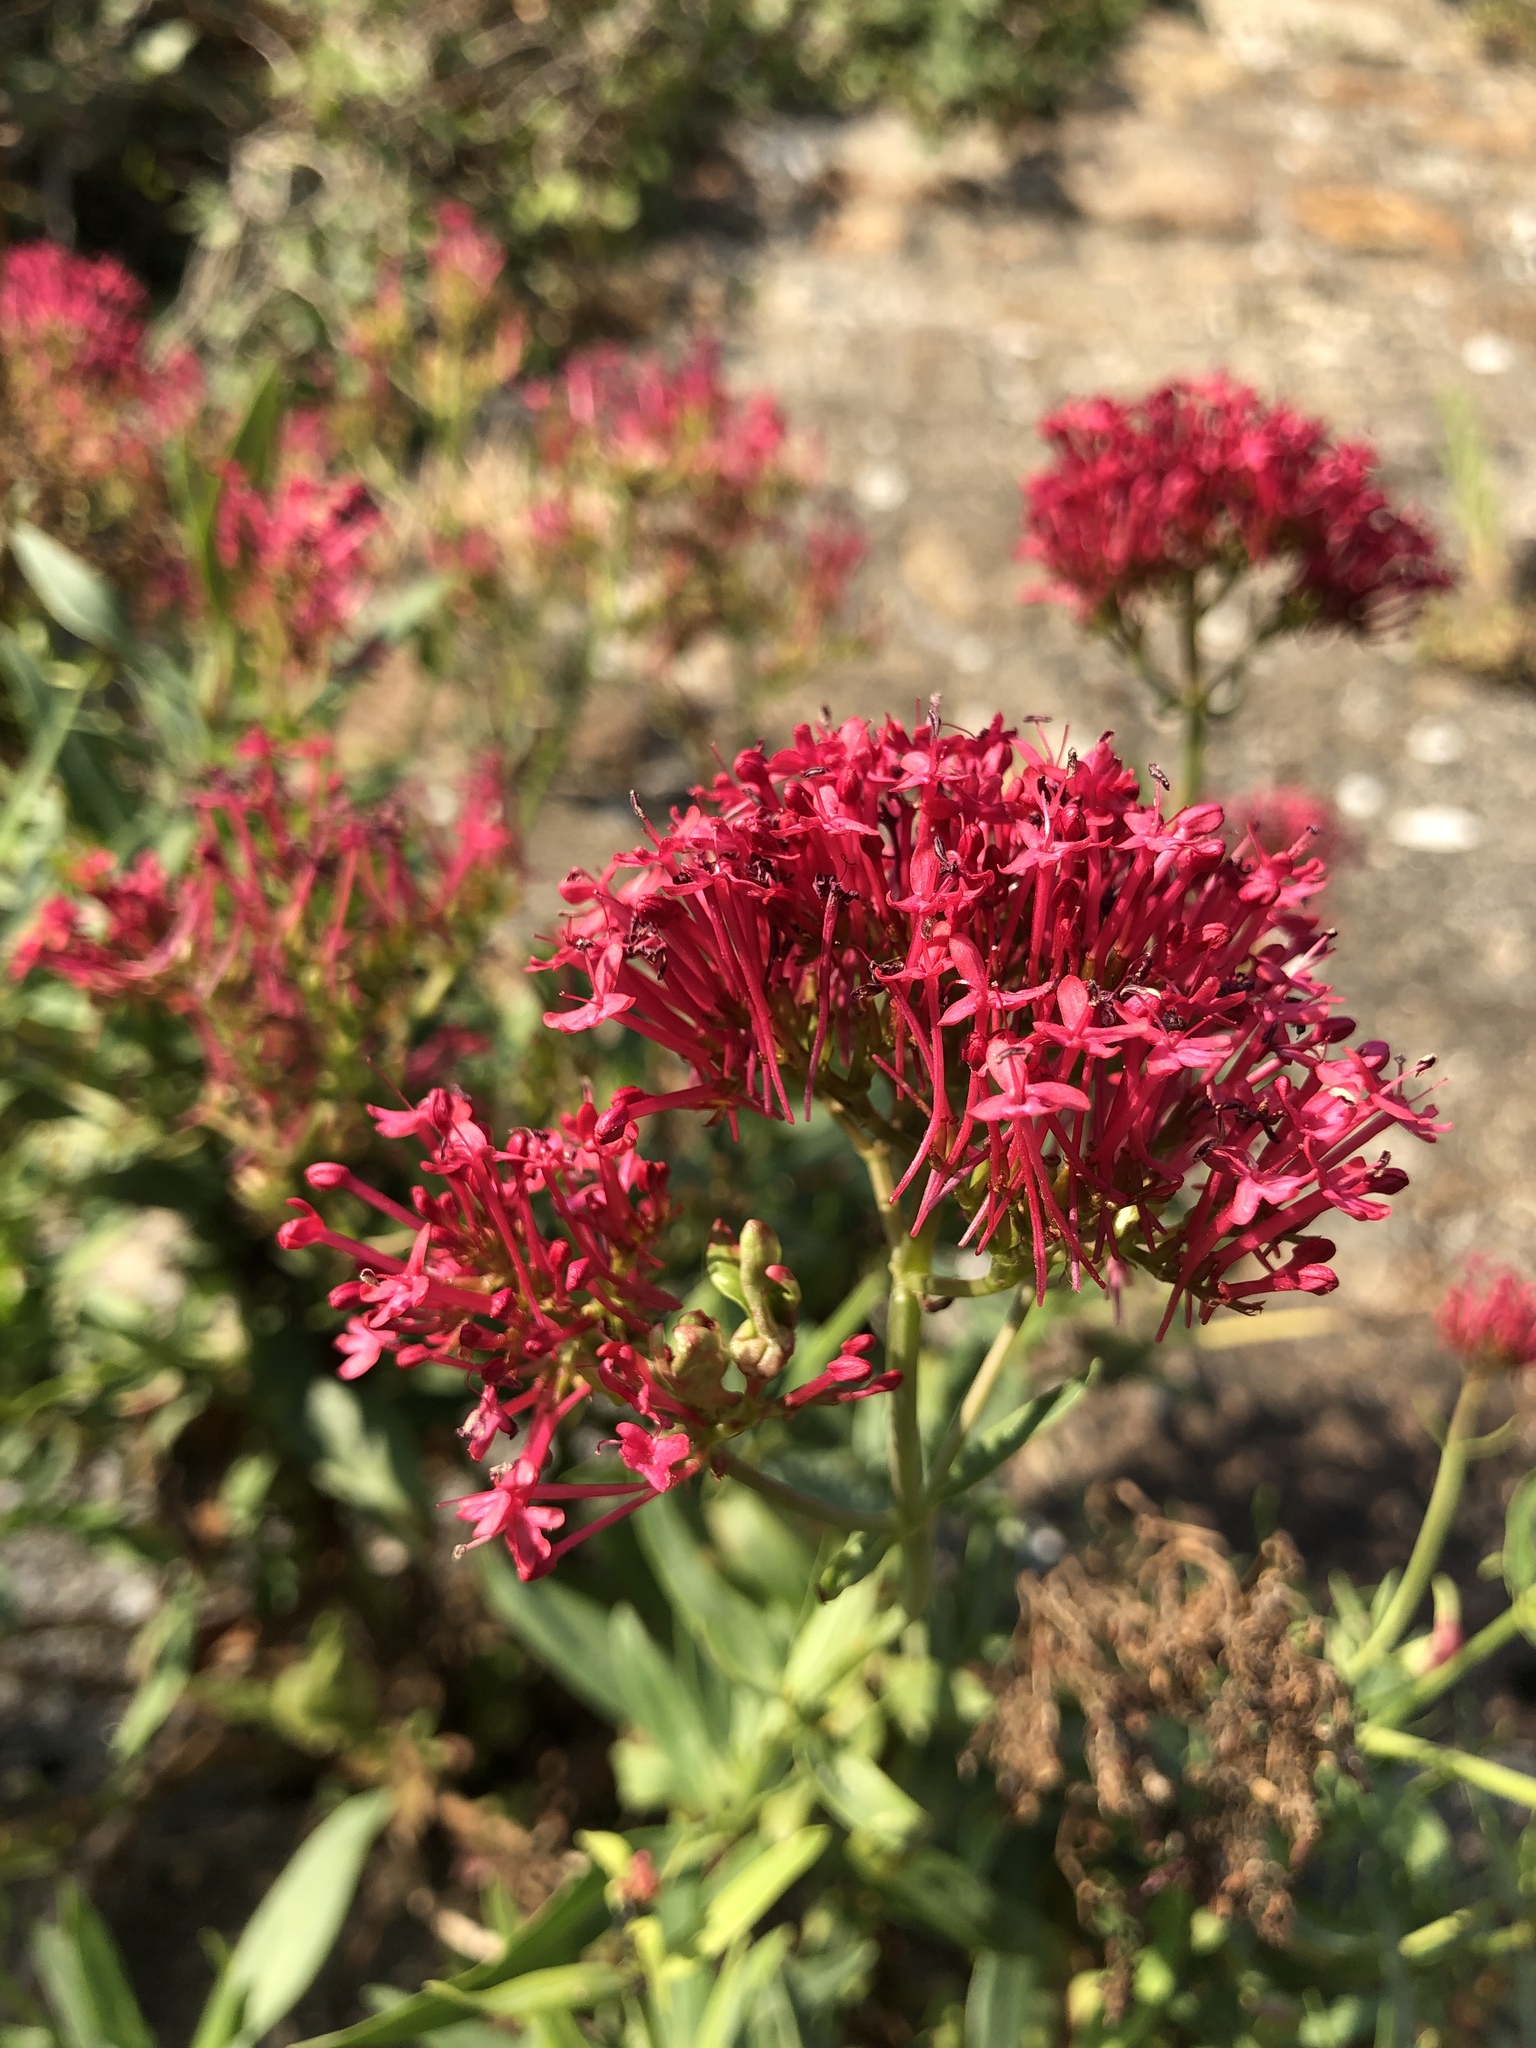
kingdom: Plantae
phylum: Tracheophyta
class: Magnoliopsida
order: Dipsacales
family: Caprifoliaceae
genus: Centranthus
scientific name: Centranthus ruber
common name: Red valerian
